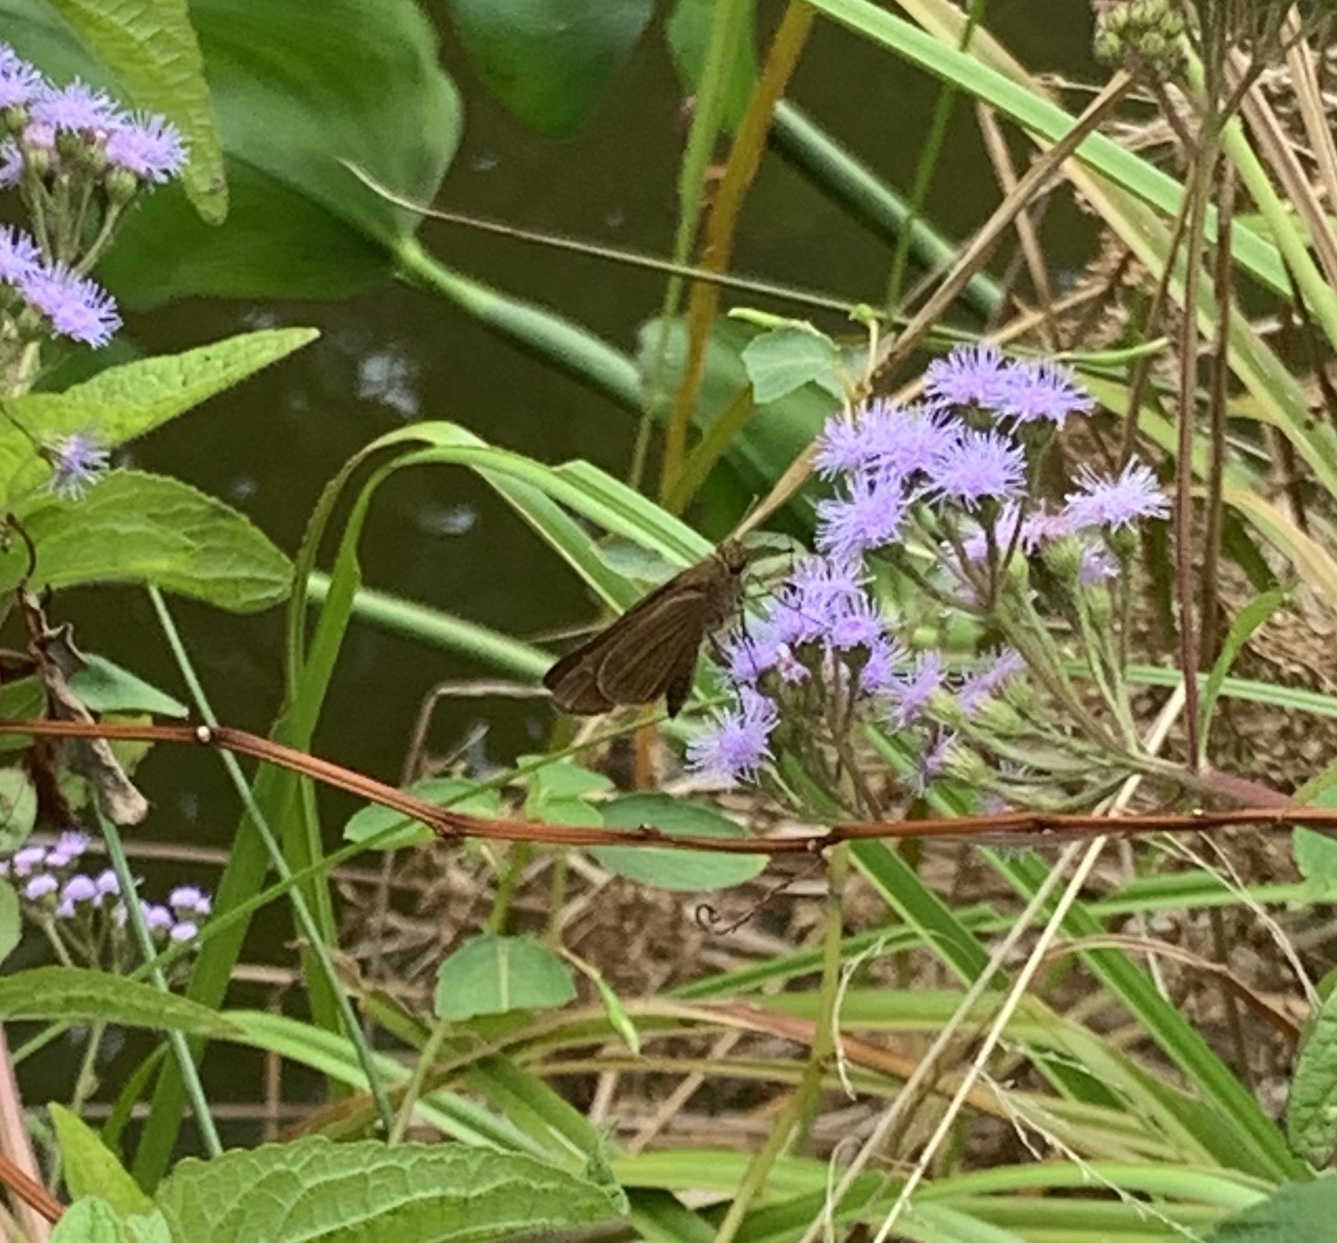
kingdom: Animalia
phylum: Arthropoda
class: Insecta
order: Lepidoptera
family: Hesperiidae
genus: Panoquina
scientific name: Panoquina ocola
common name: Ocola skipper
